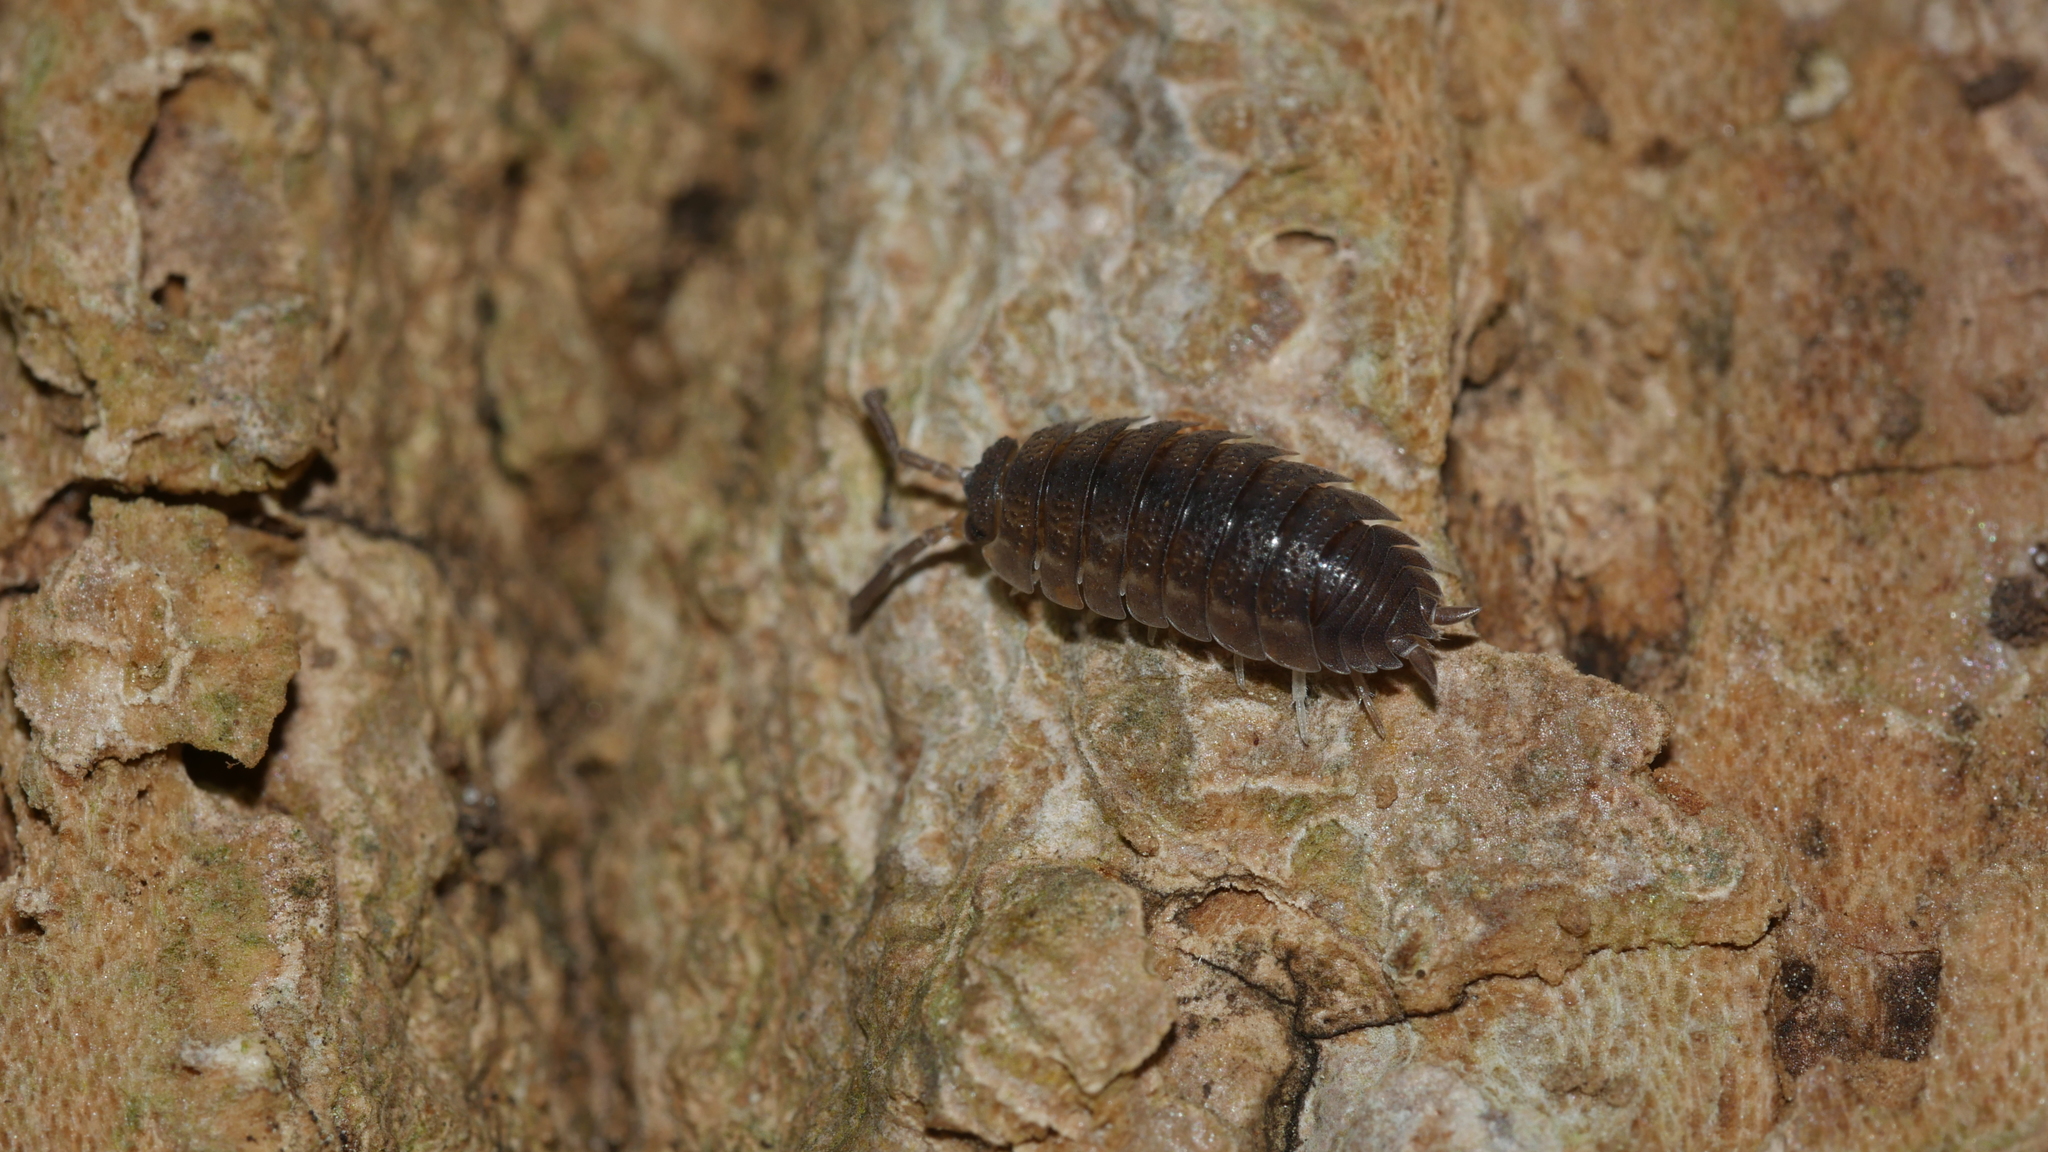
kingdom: Animalia
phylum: Arthropoda
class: Malacostraca
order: Isopoda
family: Porcellionidae
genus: Porcellio
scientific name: Porcellio scaber
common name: Common rough woodlouse
